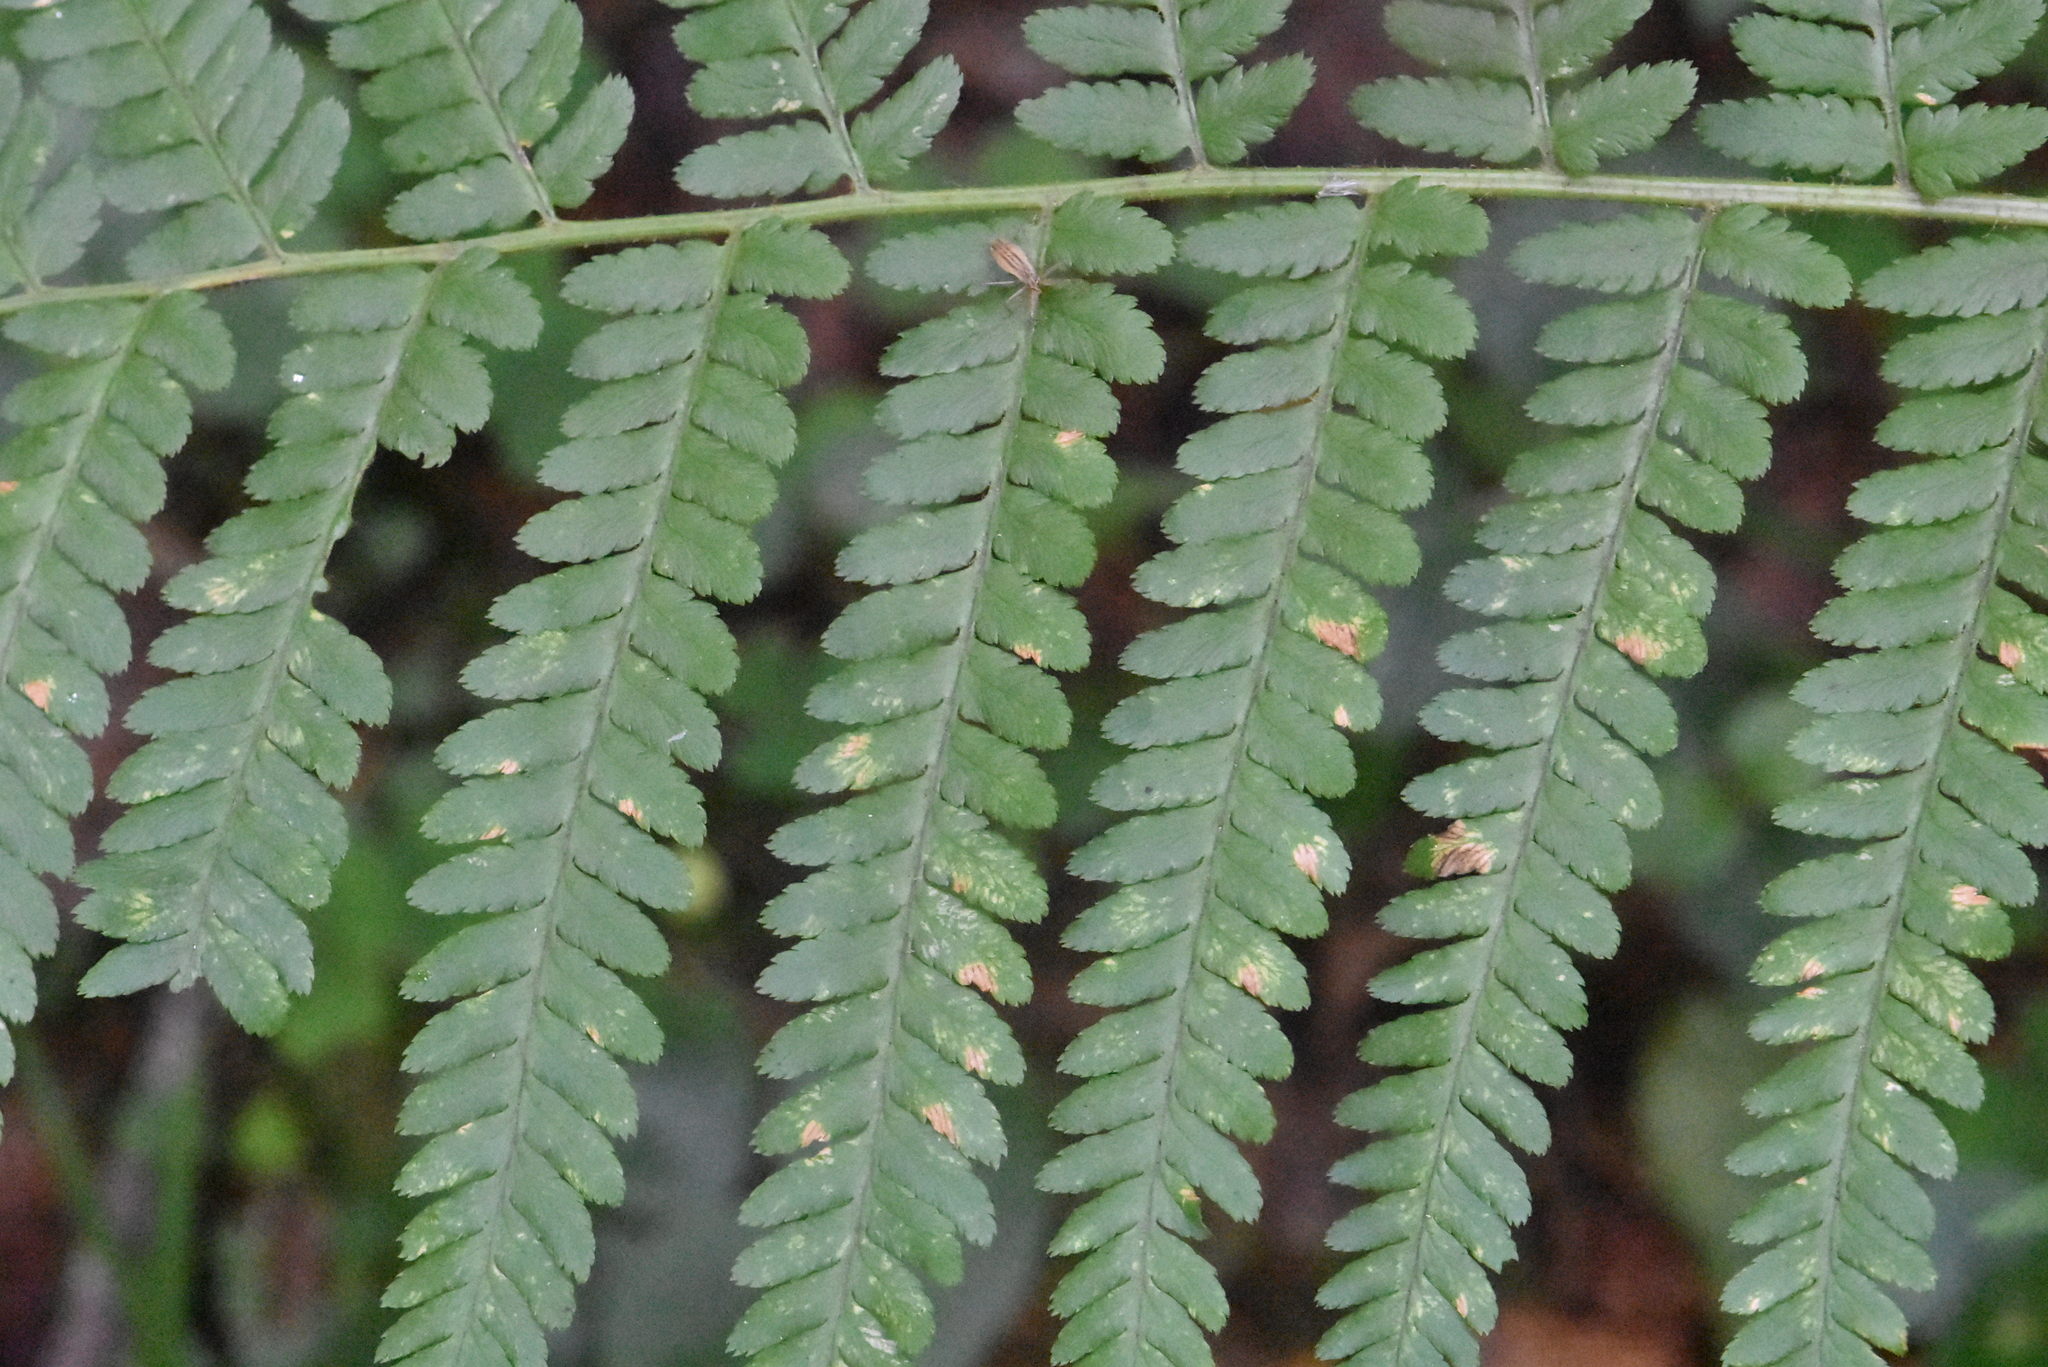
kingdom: Plantae
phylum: Tracheophyta
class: Polypodiopsida
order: Polypodiales
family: Dryopteridaceae
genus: Dryopteris
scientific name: Dryopteris filix-mas
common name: Male fern
